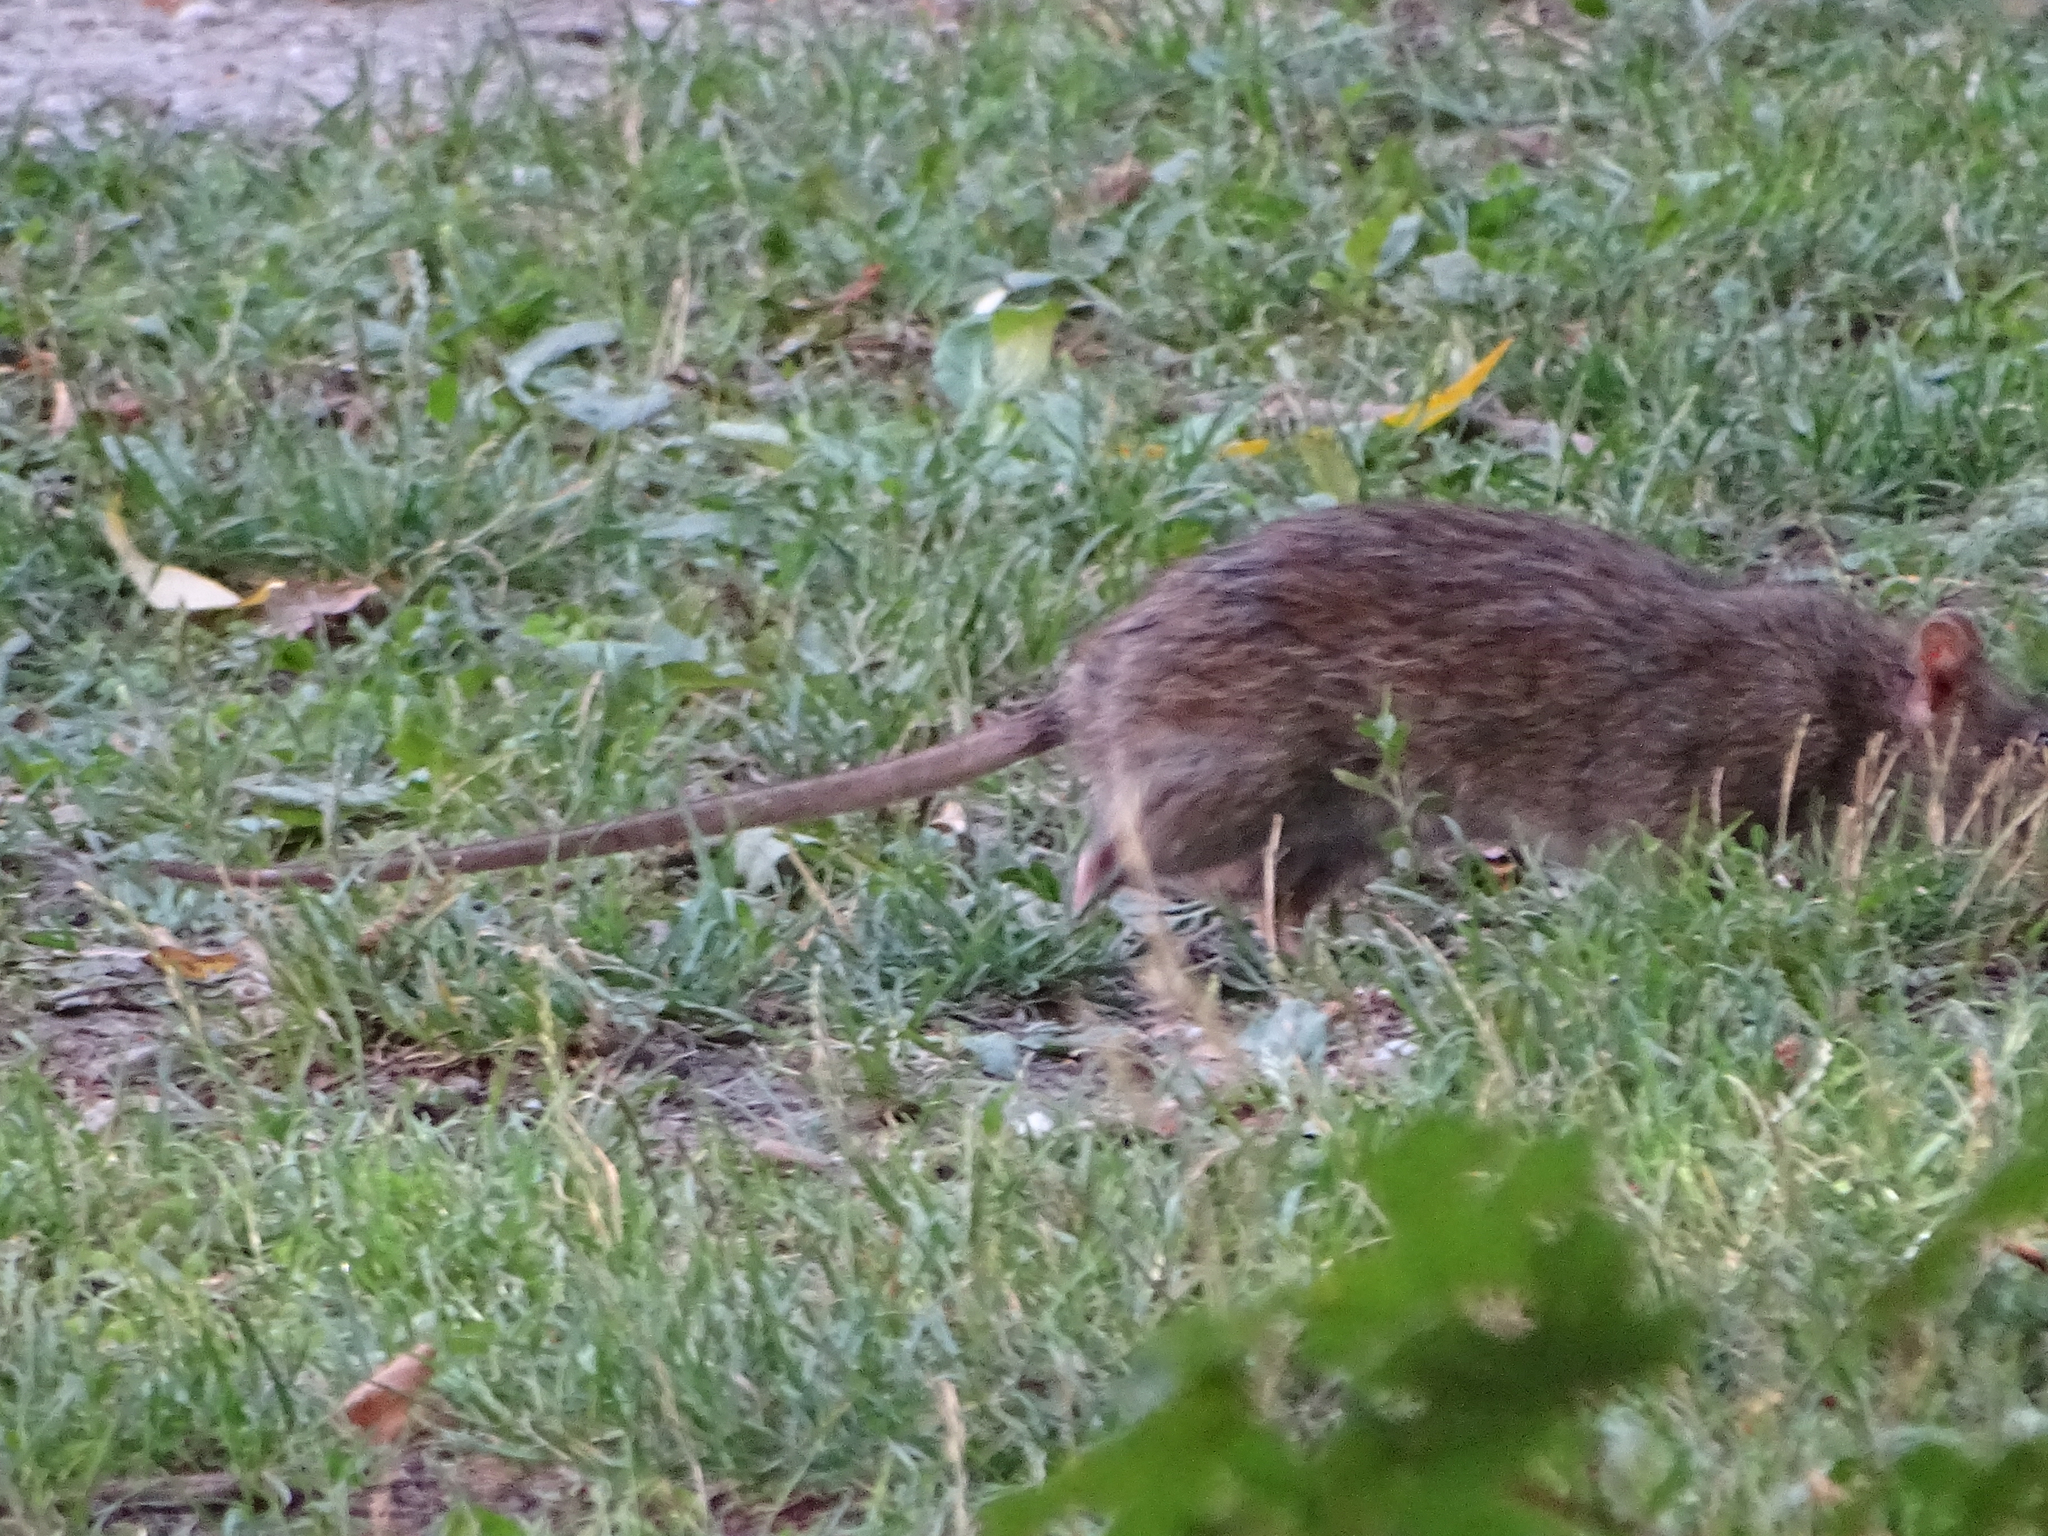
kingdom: Animalia
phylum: Chordata
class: Mammalia
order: Rodentia
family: Muridae
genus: Rattus
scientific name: Rattus norvegicus
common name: Brown rat
